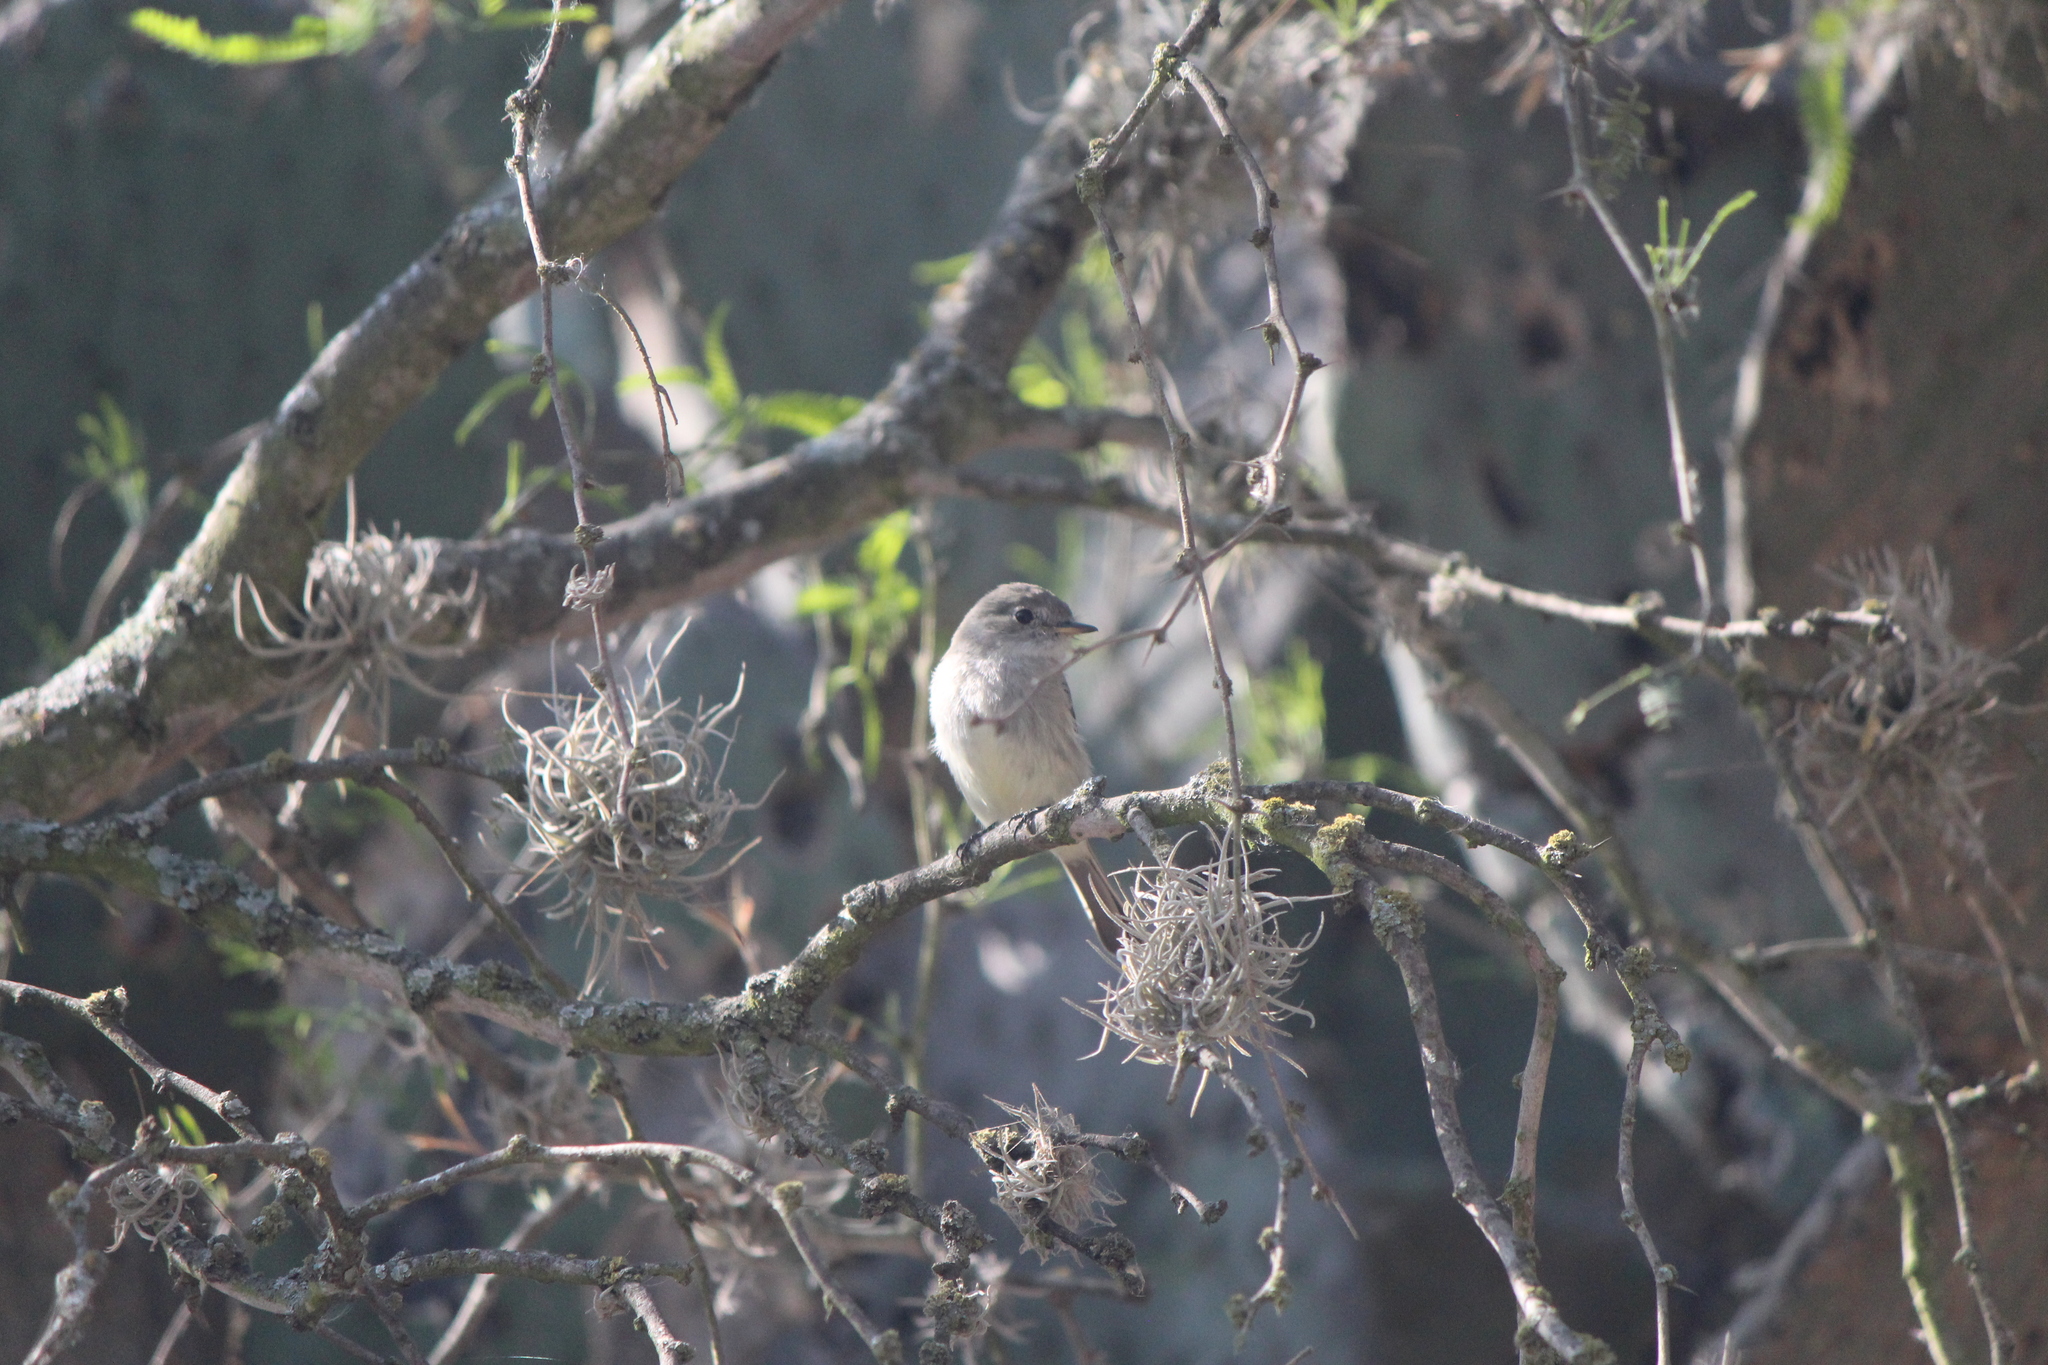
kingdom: Animalia
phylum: Chordata
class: Aves
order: Passeriformes
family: Tyrannidae
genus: Empidonax
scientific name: Empidonax wrightii
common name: Gray flycatcher
